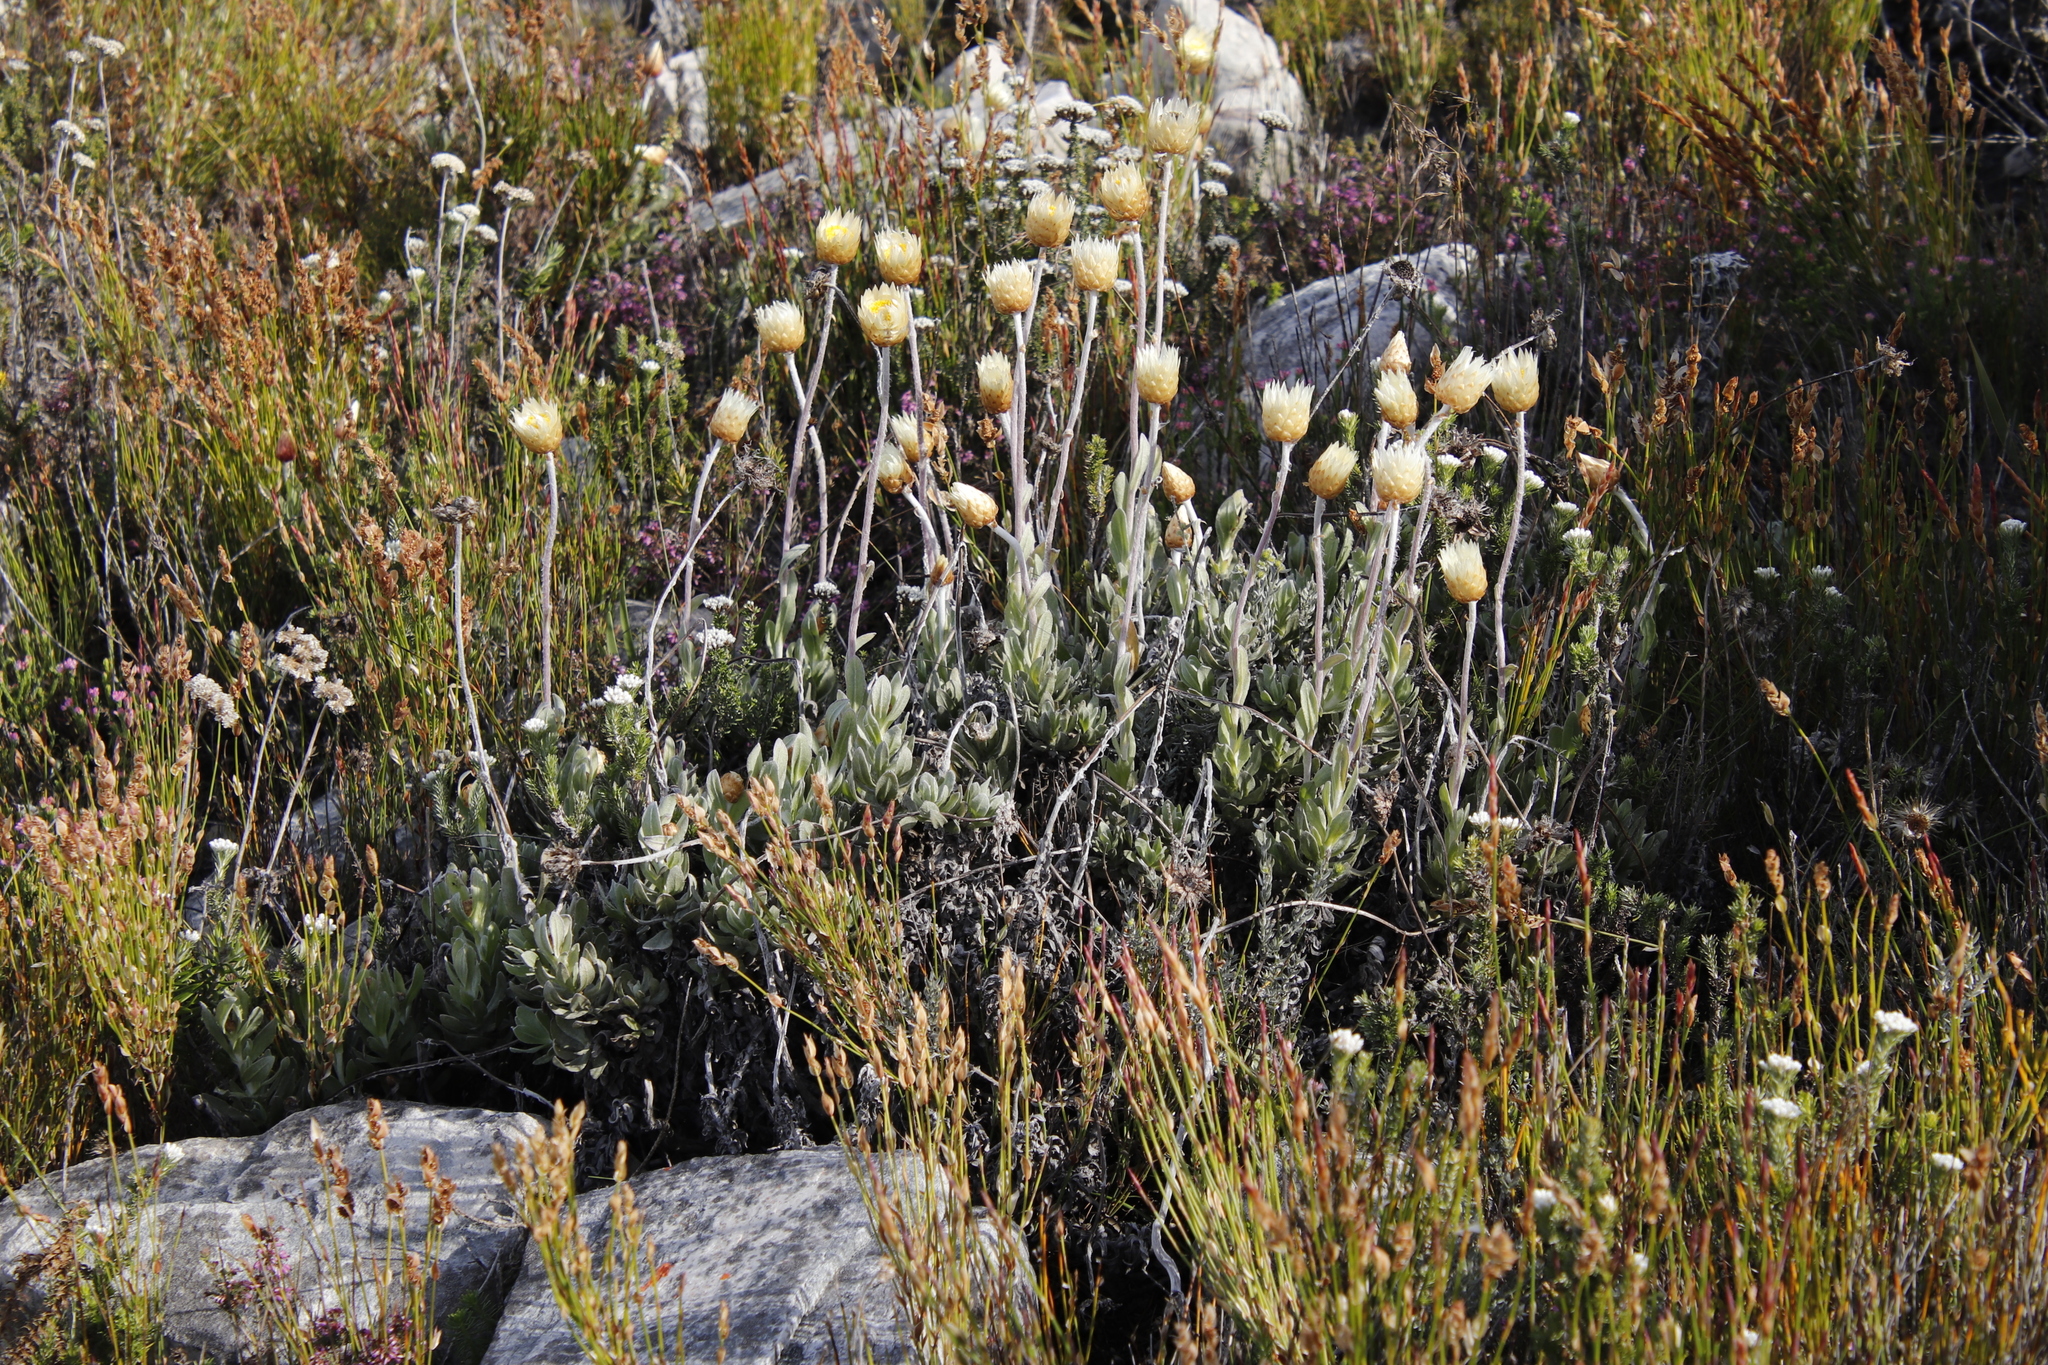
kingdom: Plantae
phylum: Tracheophyta
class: Magnoliopsida
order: Asterales
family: Asteraceae
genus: Syncarpha
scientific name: Syncarpha speciosissima
